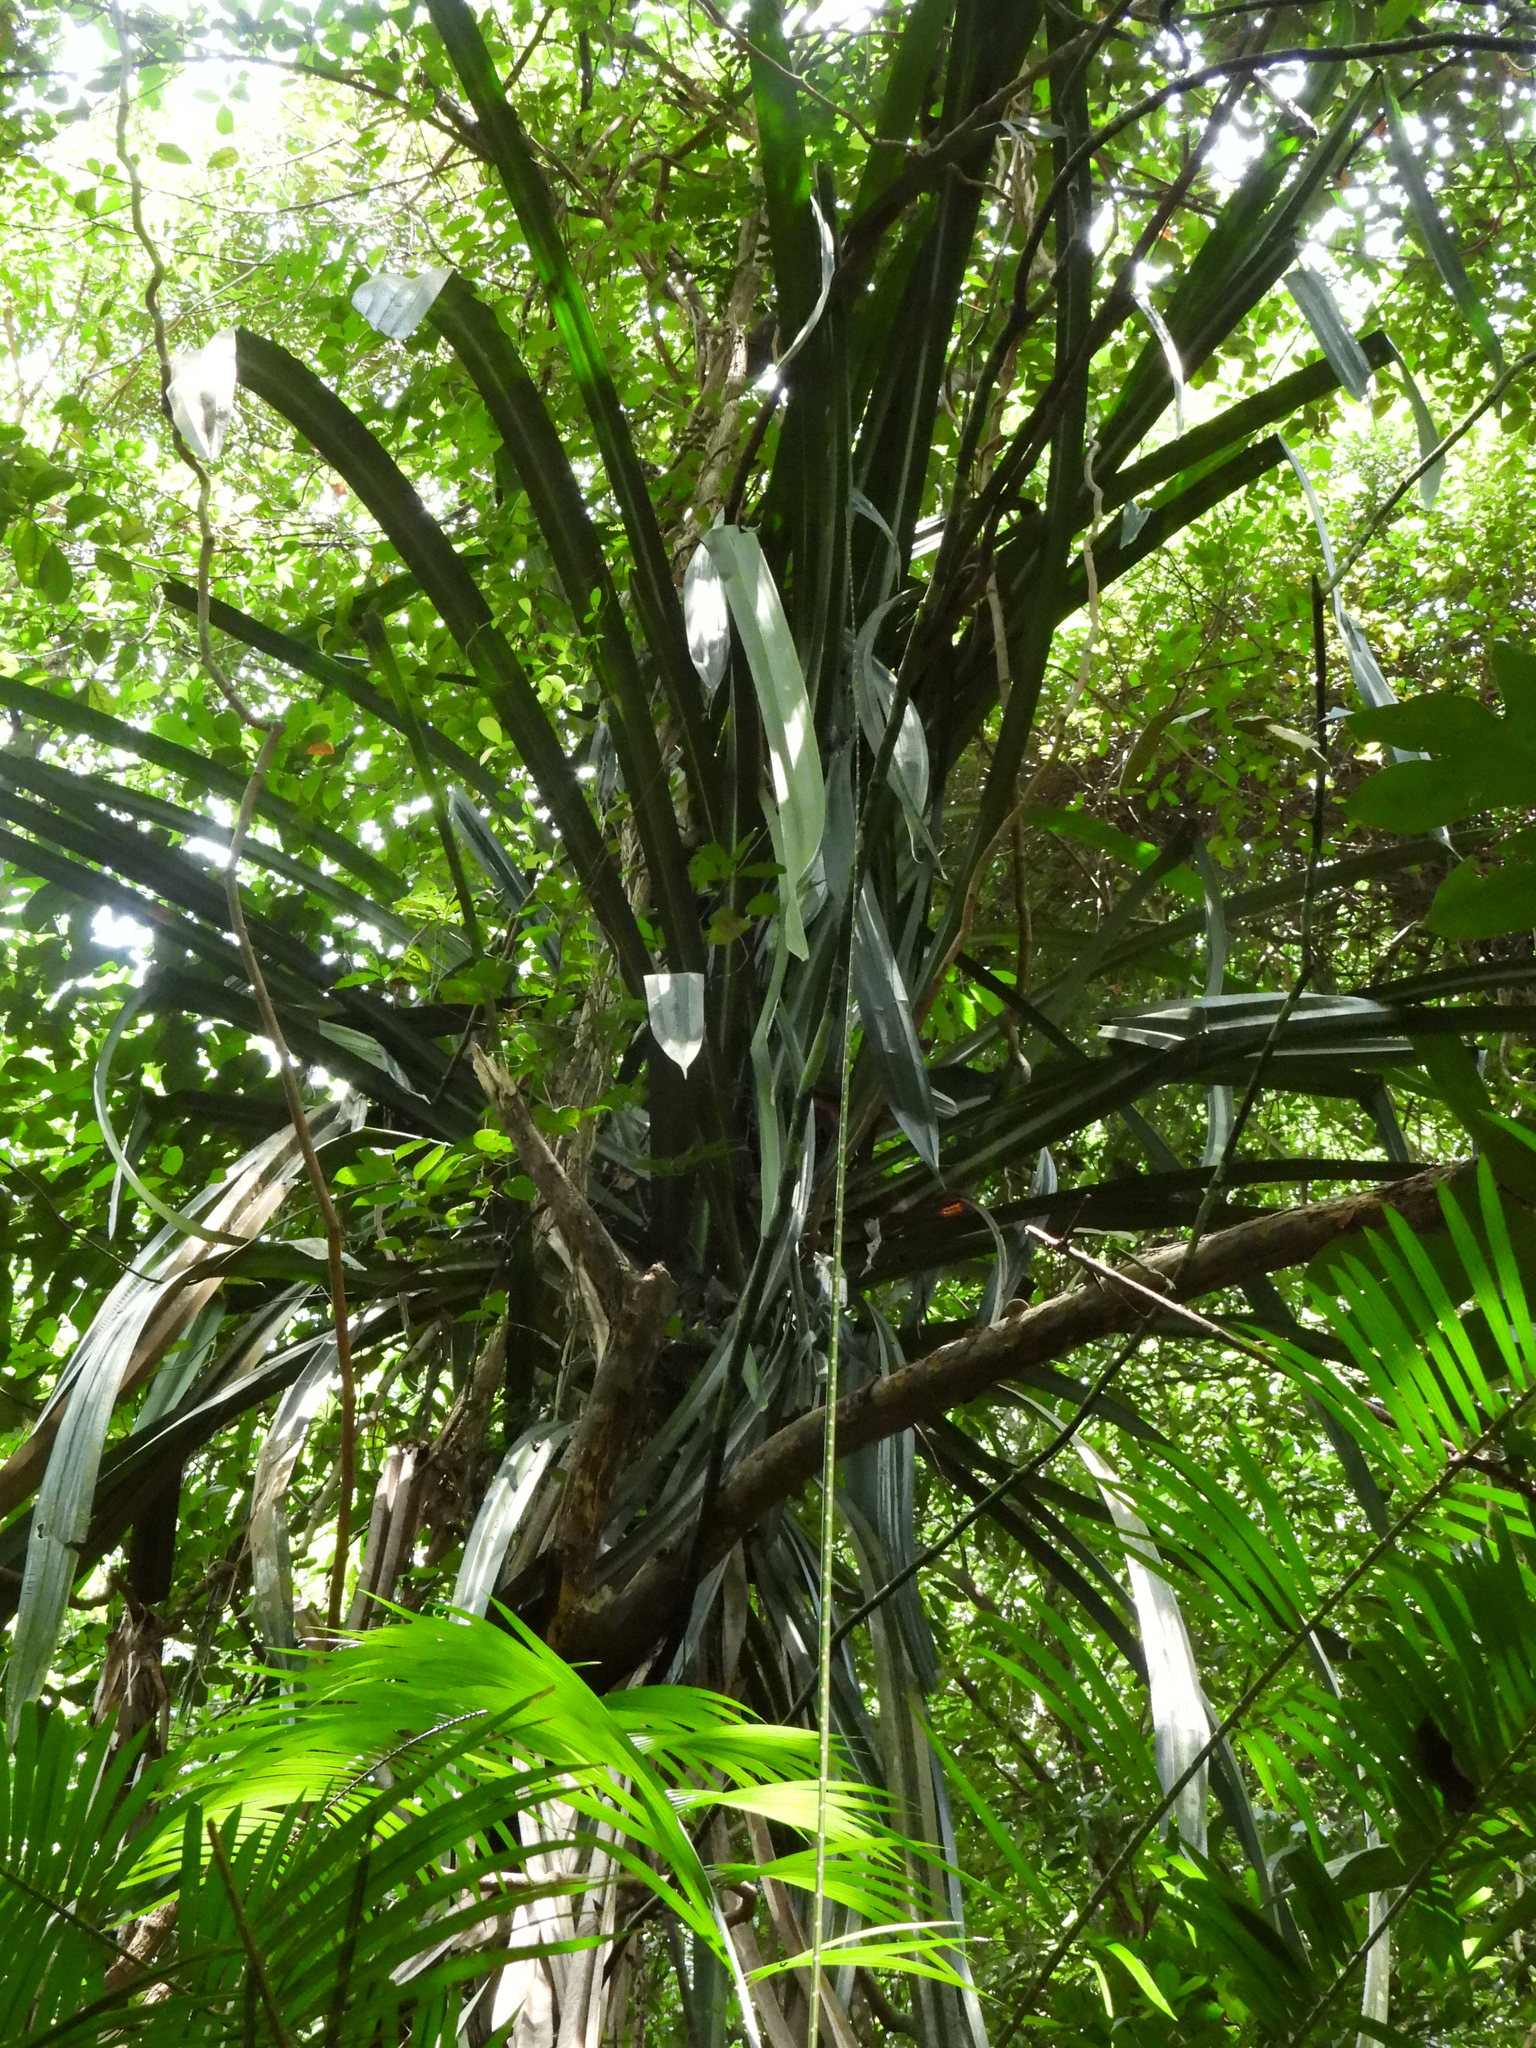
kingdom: Plantae
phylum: Tracheophyta
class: Liliopsida
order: Pandanales
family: Pandanaceae
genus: Pandanus
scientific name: Pandanus houlletii
